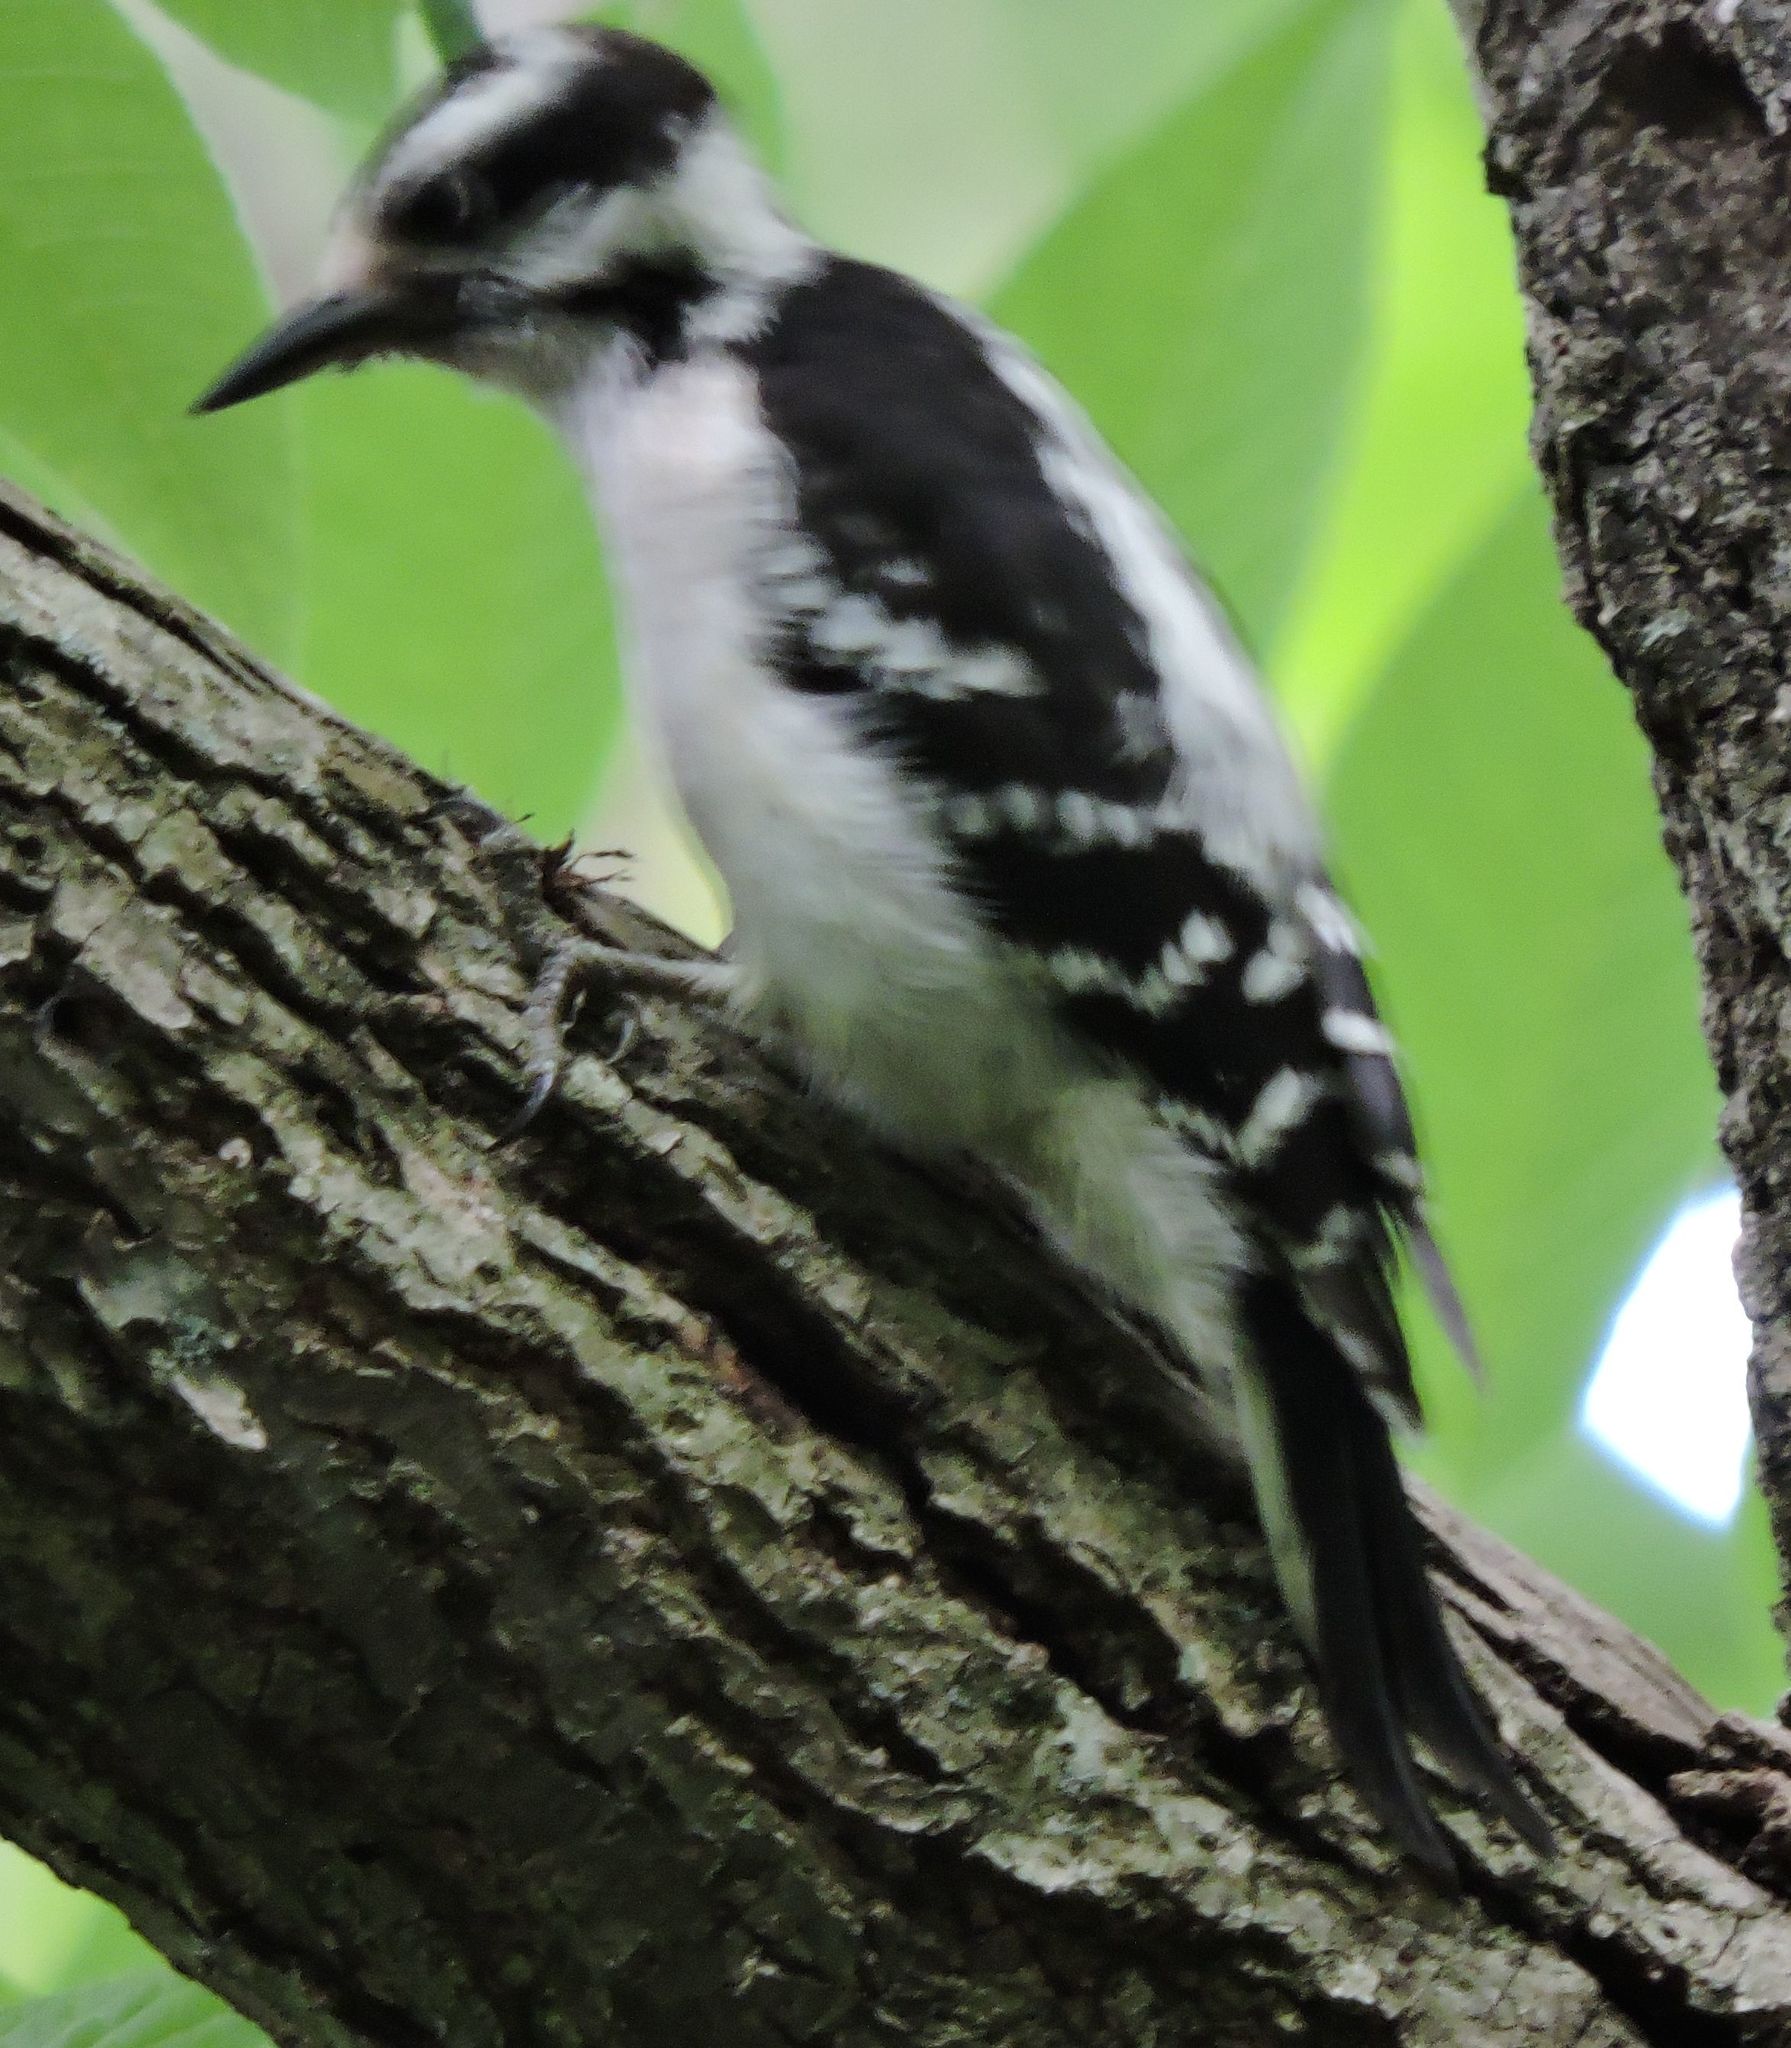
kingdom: Animalia
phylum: Chordata
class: Aves
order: Piciformes
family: Picidae
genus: Dryobates
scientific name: Dryobates pubescens
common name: Downy woodpecker
